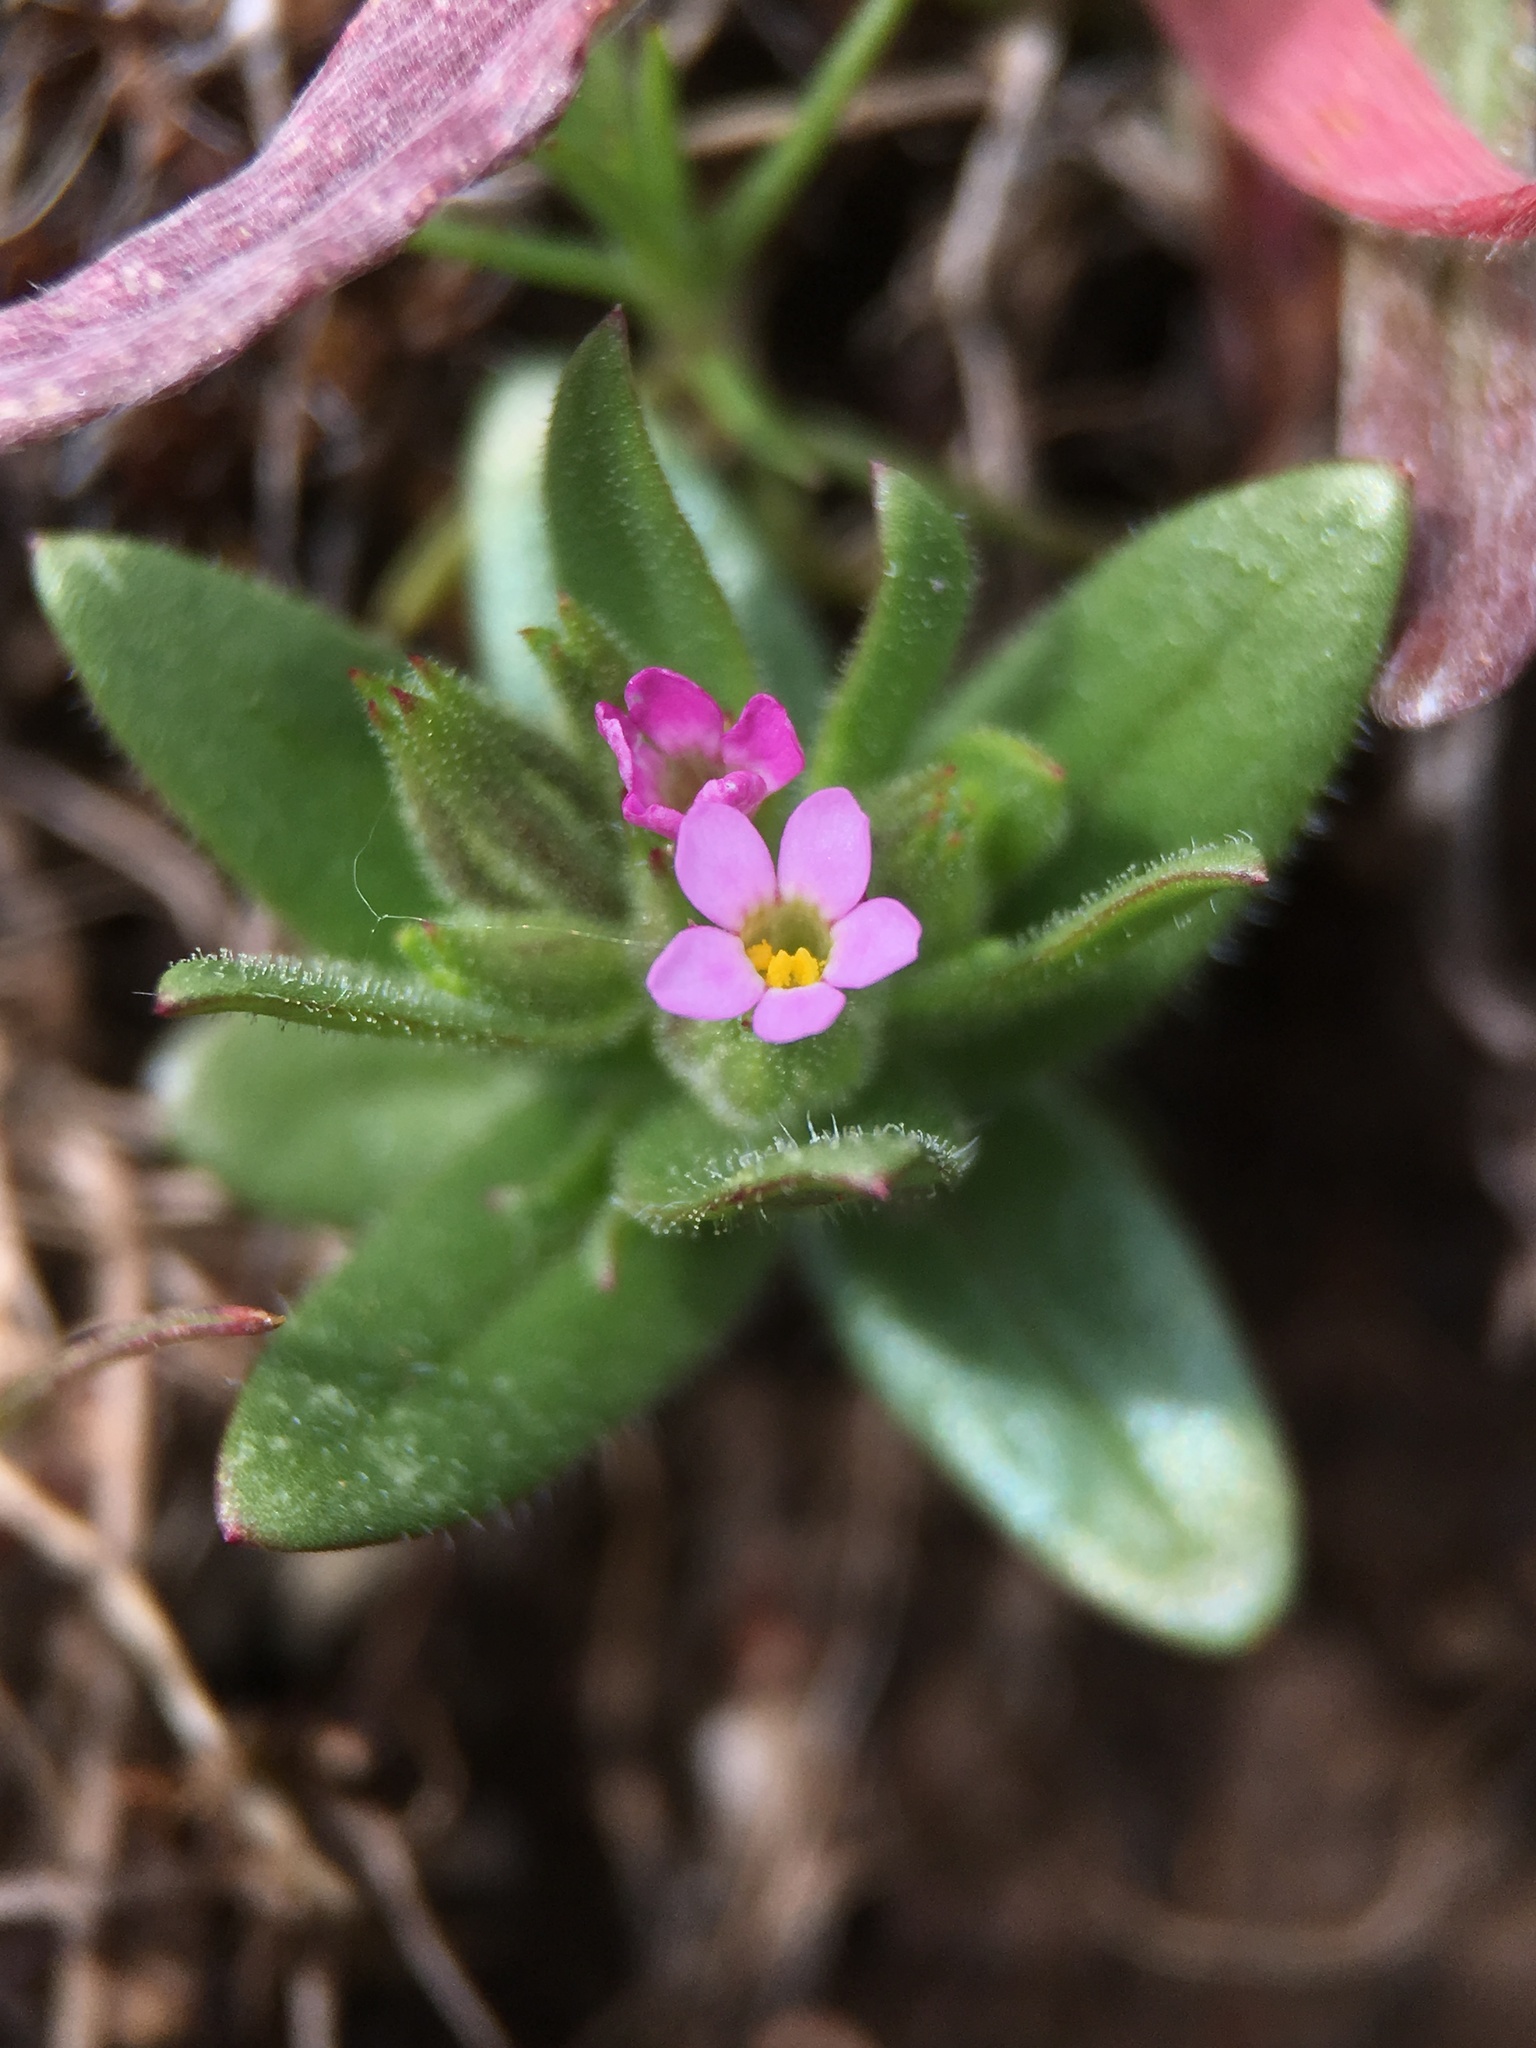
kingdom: Plantae
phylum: Tracheophyta
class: Magnoliopsida
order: Ericales
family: Polemoniaceae
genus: Phlox
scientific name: Phlox gracilis
